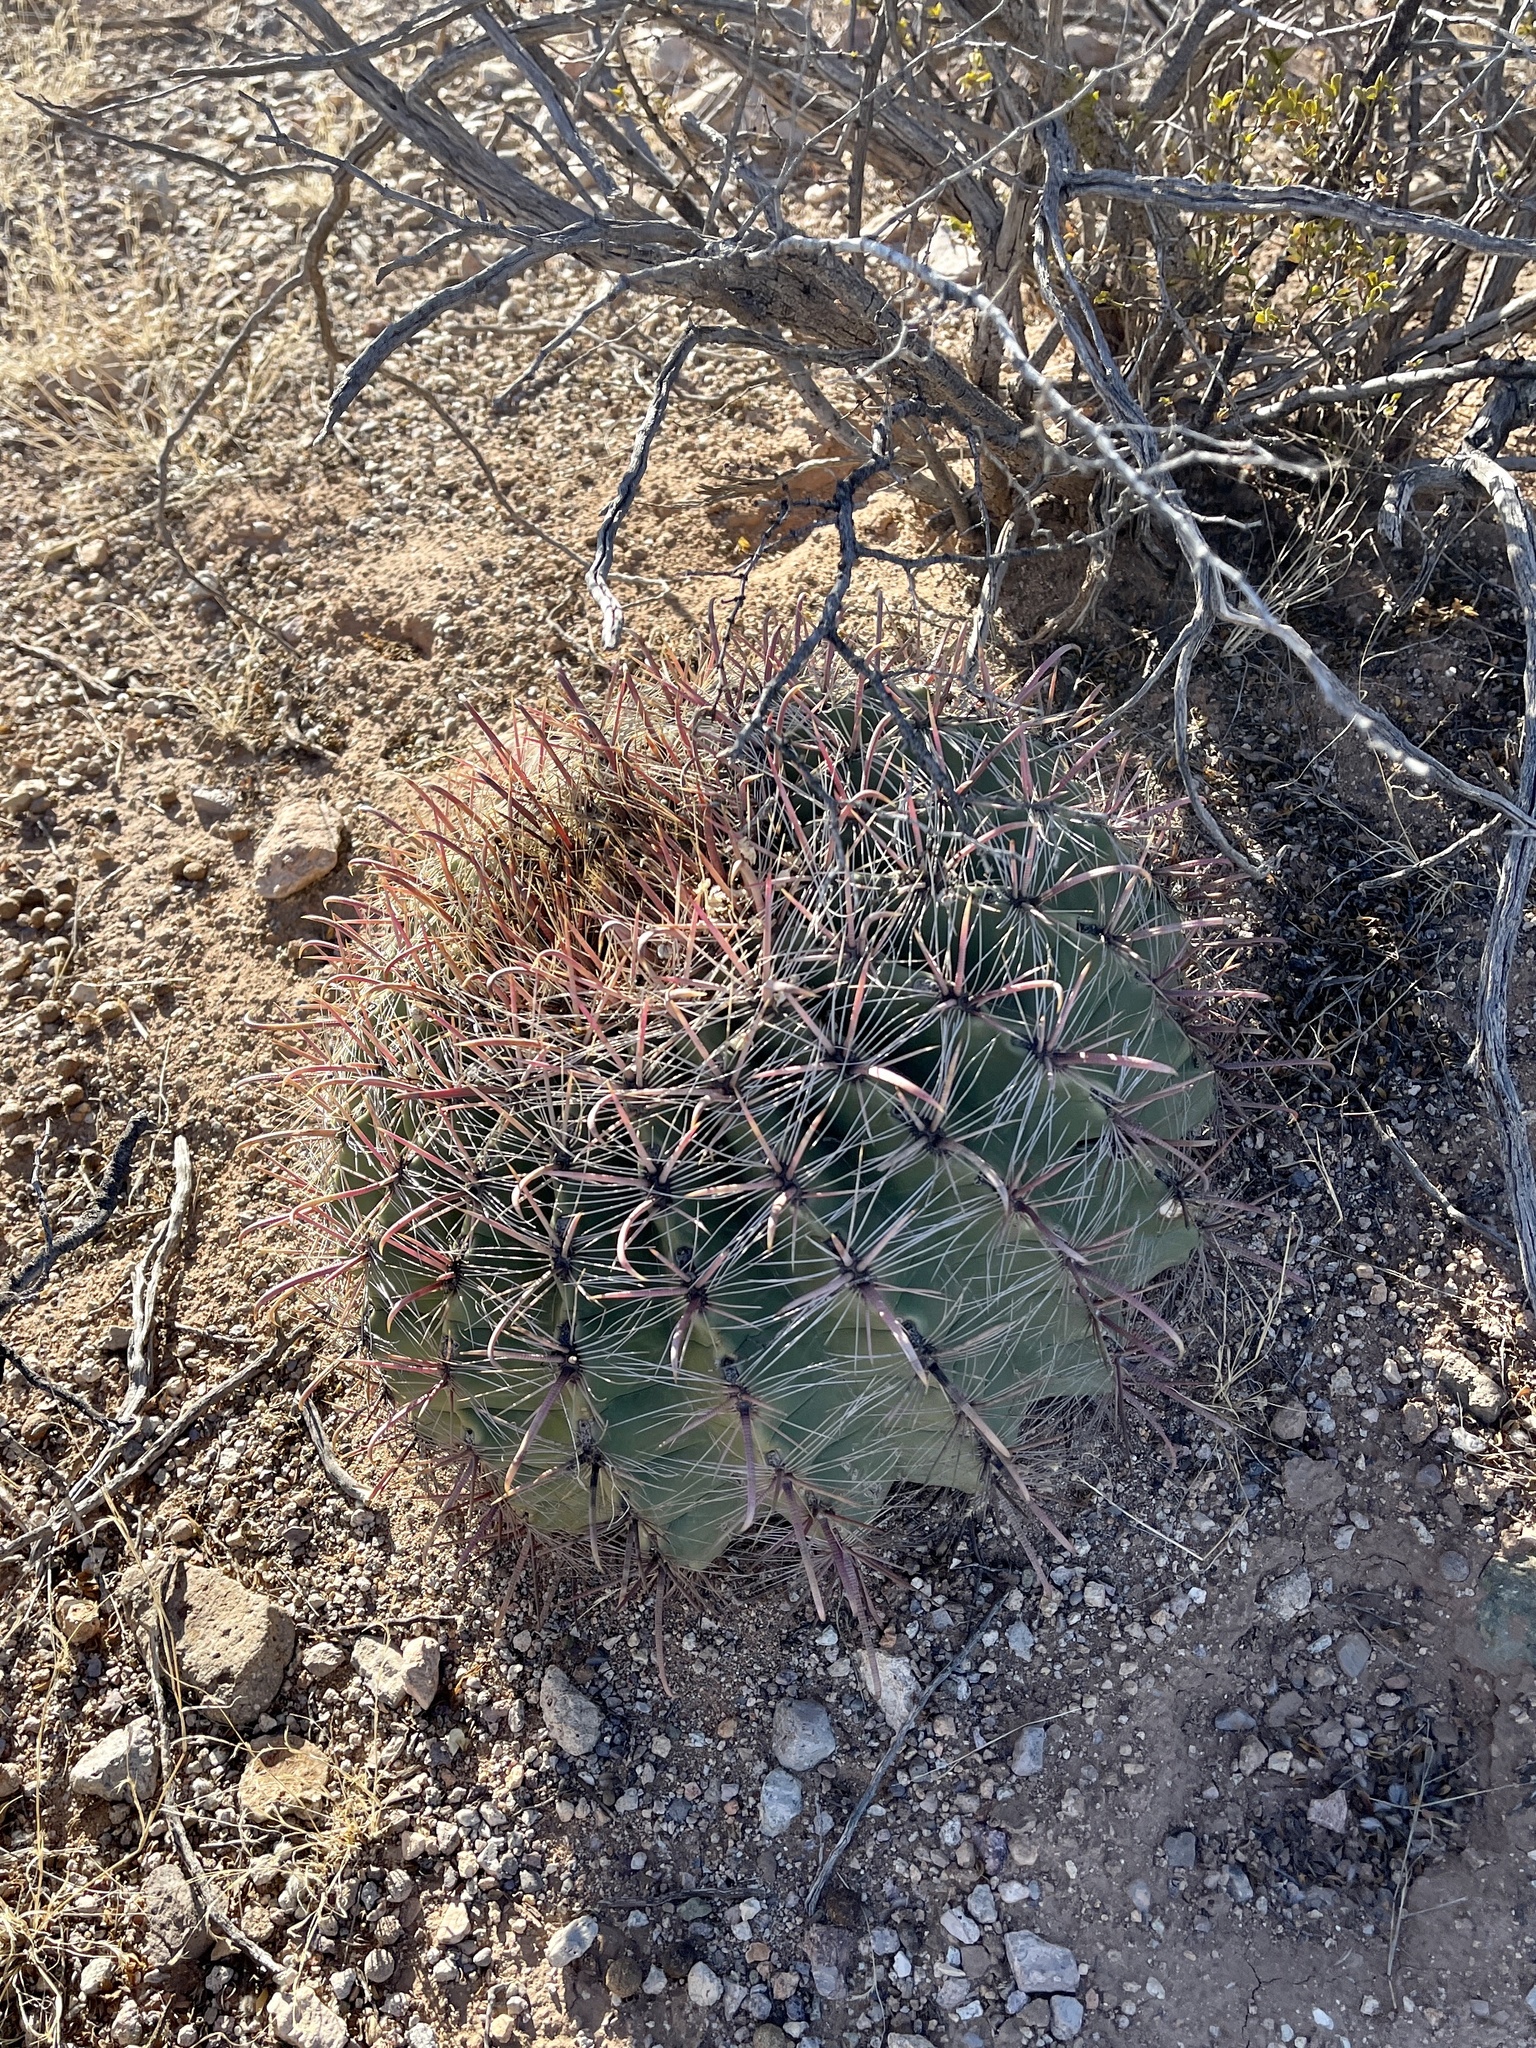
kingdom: Plantae
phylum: Tracheophyta
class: Magnoliopsida
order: Caryophyllales
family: Cactaceae
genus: Ferocactus
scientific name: Ferocactus wislizeni
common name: Candy barrel cactus
